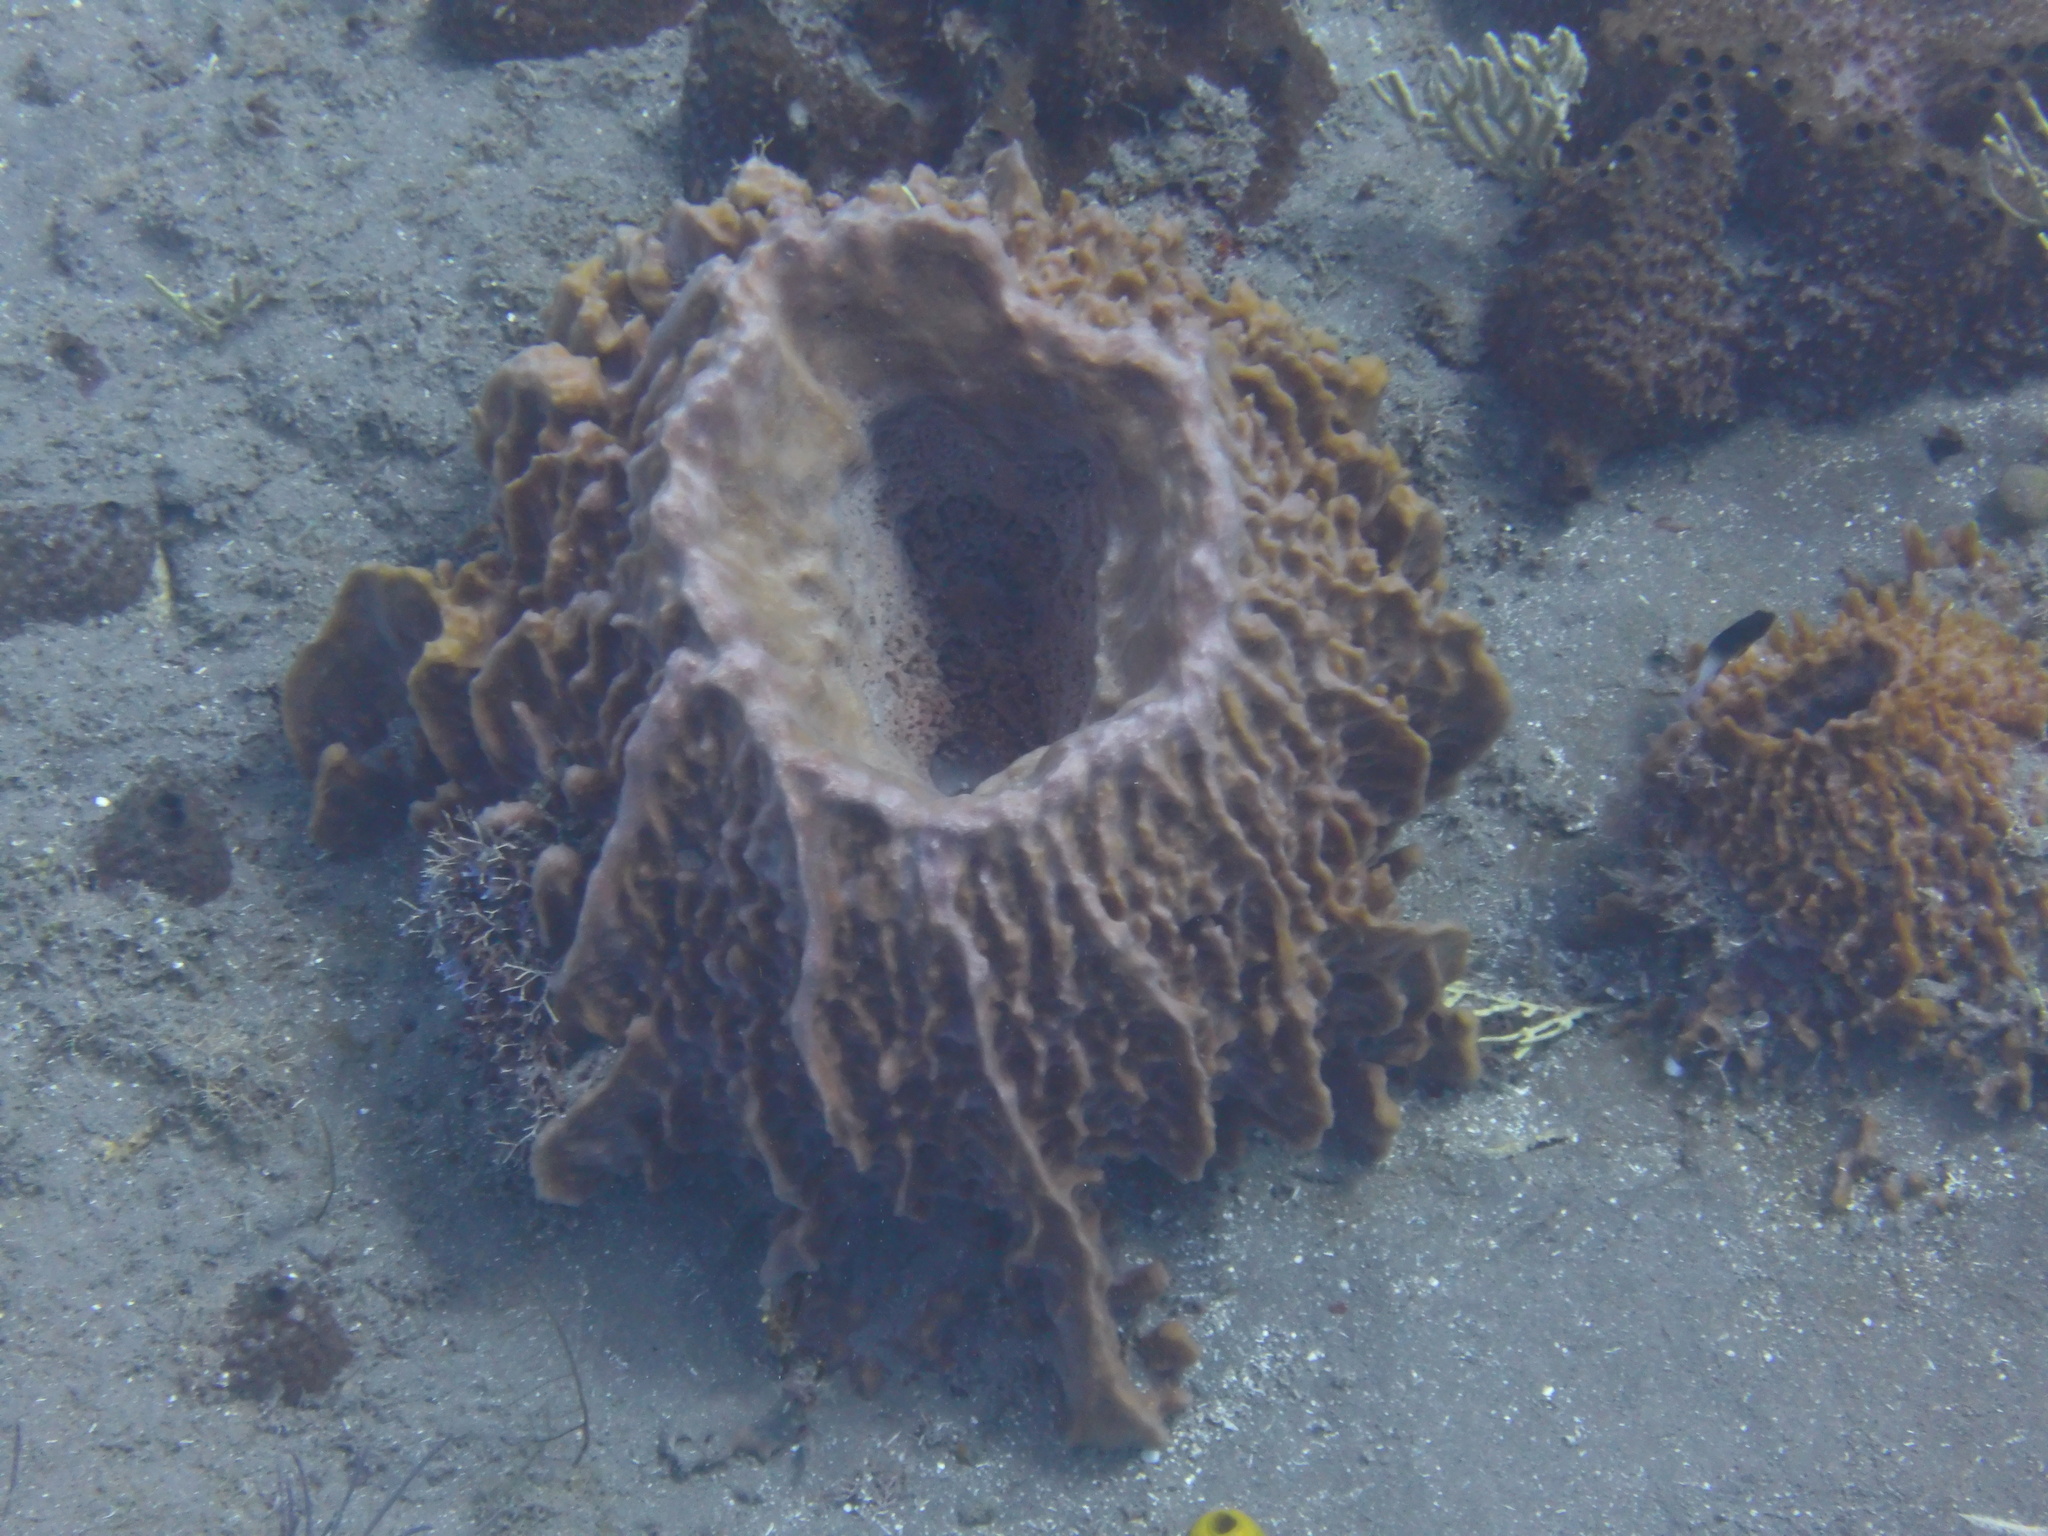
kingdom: Animalia
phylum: Porifera
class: Demospongiae
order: Haplosclerida
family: Petrosiidae
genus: Xestospongia
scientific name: Xestospongia muta
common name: Giant barrel sponge
